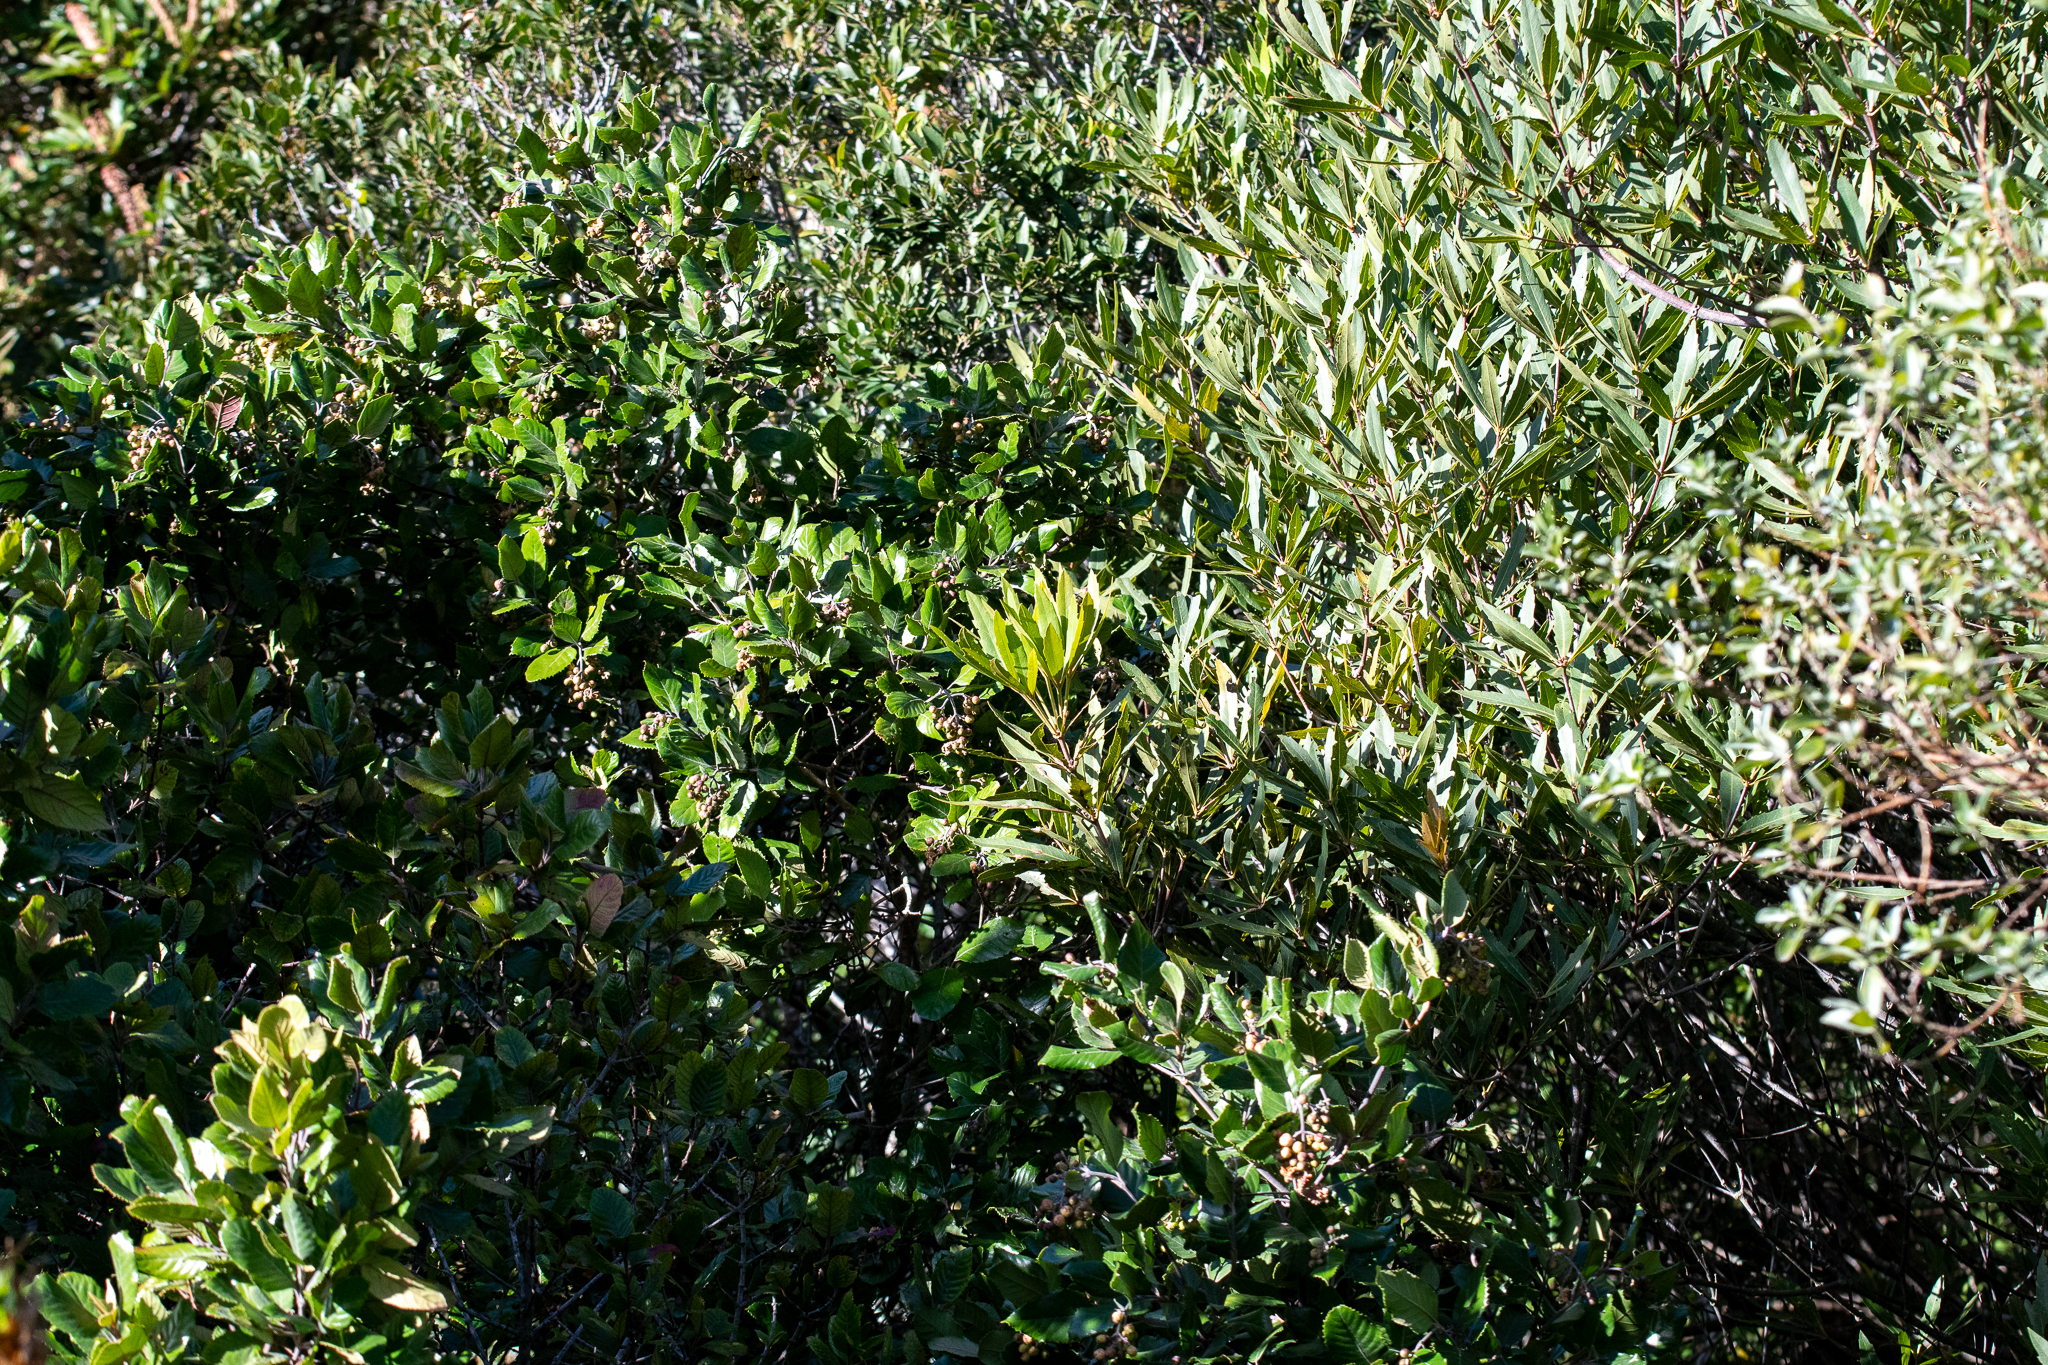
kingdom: Plantae
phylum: Tracheophyta
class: Magnoliopsida
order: Cornales
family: Curtisiaceae
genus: Curtisia
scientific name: Curtisia dentata
